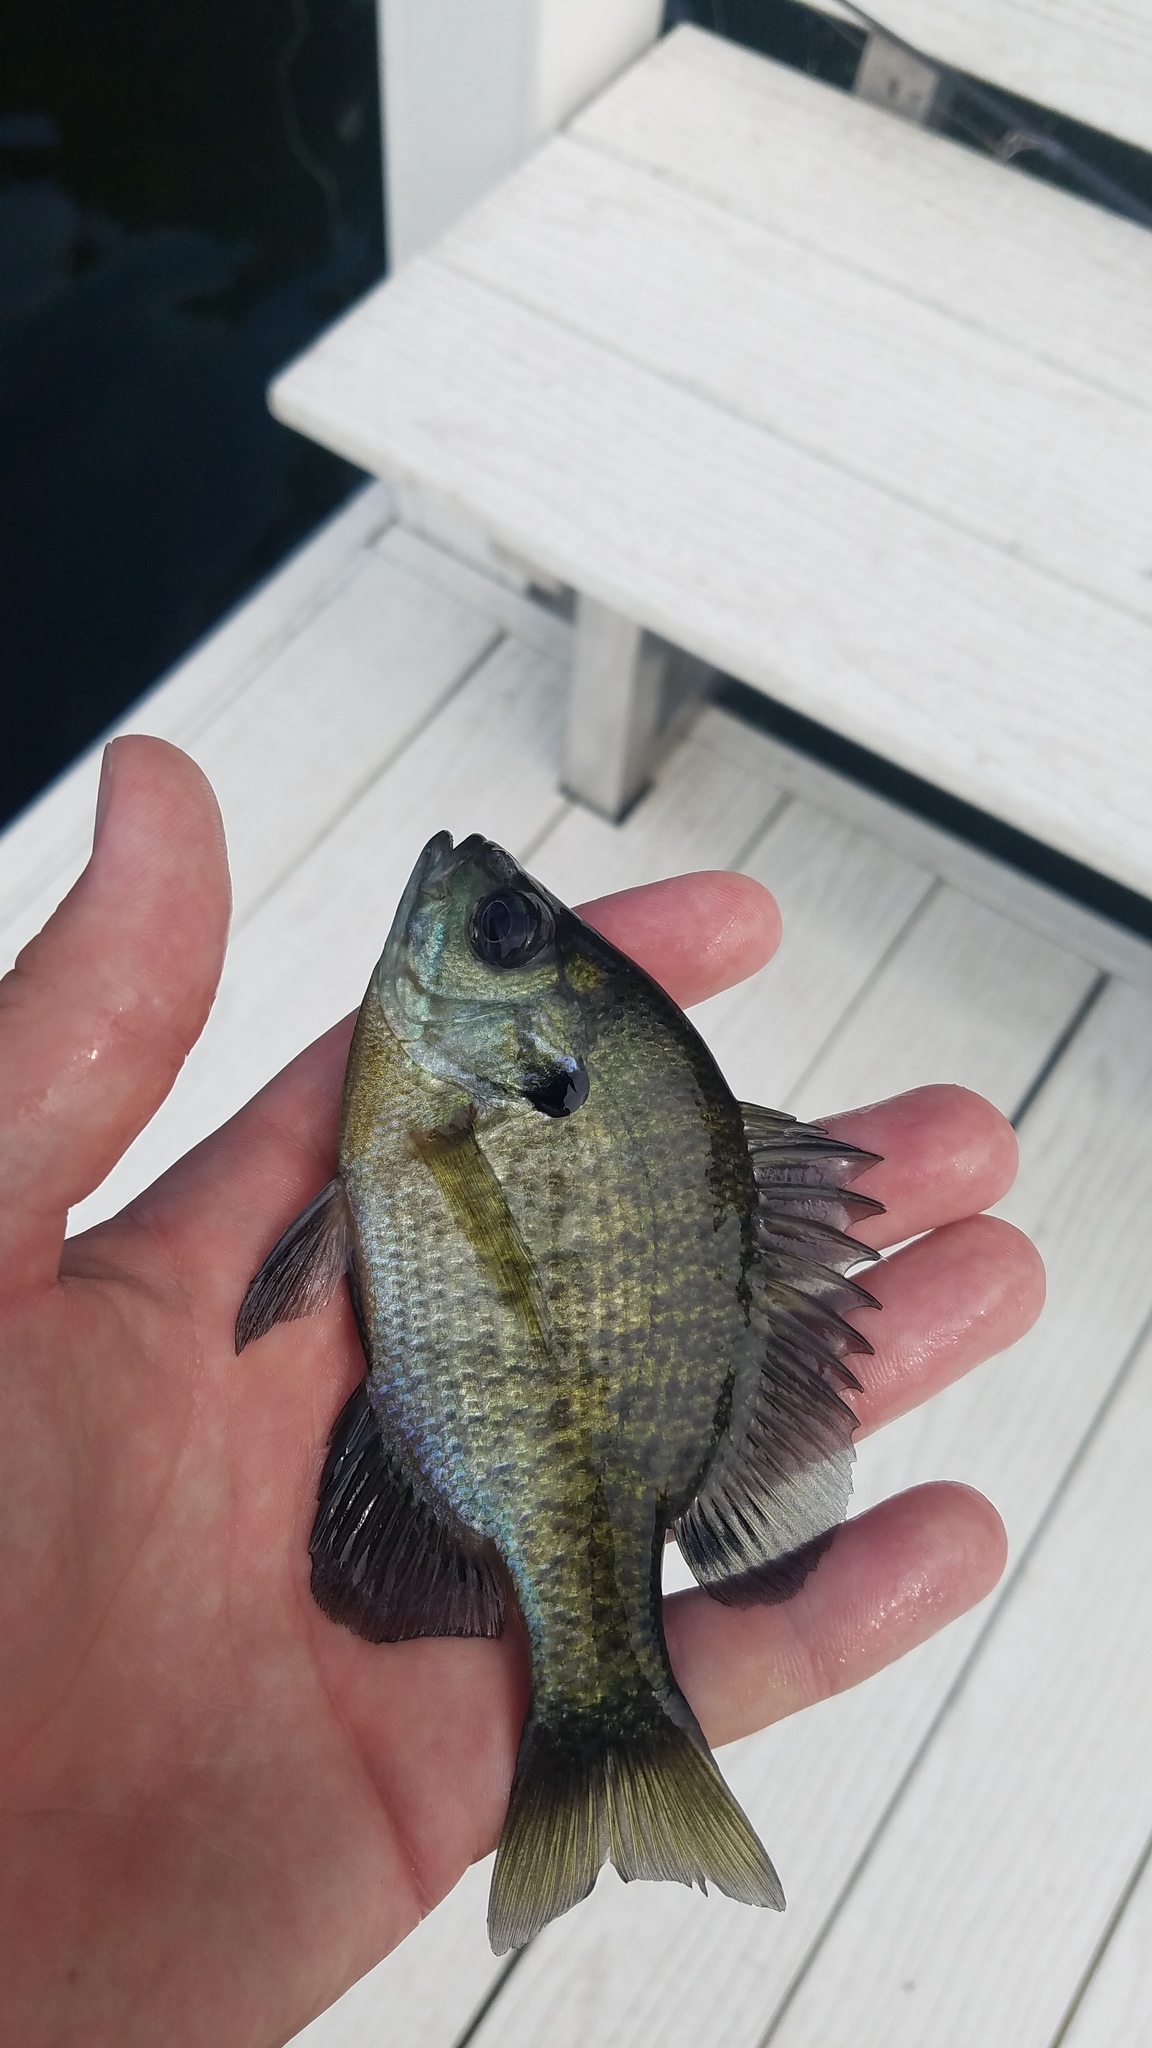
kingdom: Animalia
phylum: Chordata
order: Perciformes
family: Centrarchidae
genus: Lepomis
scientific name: Lepomis macrochirus
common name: Bluegill
